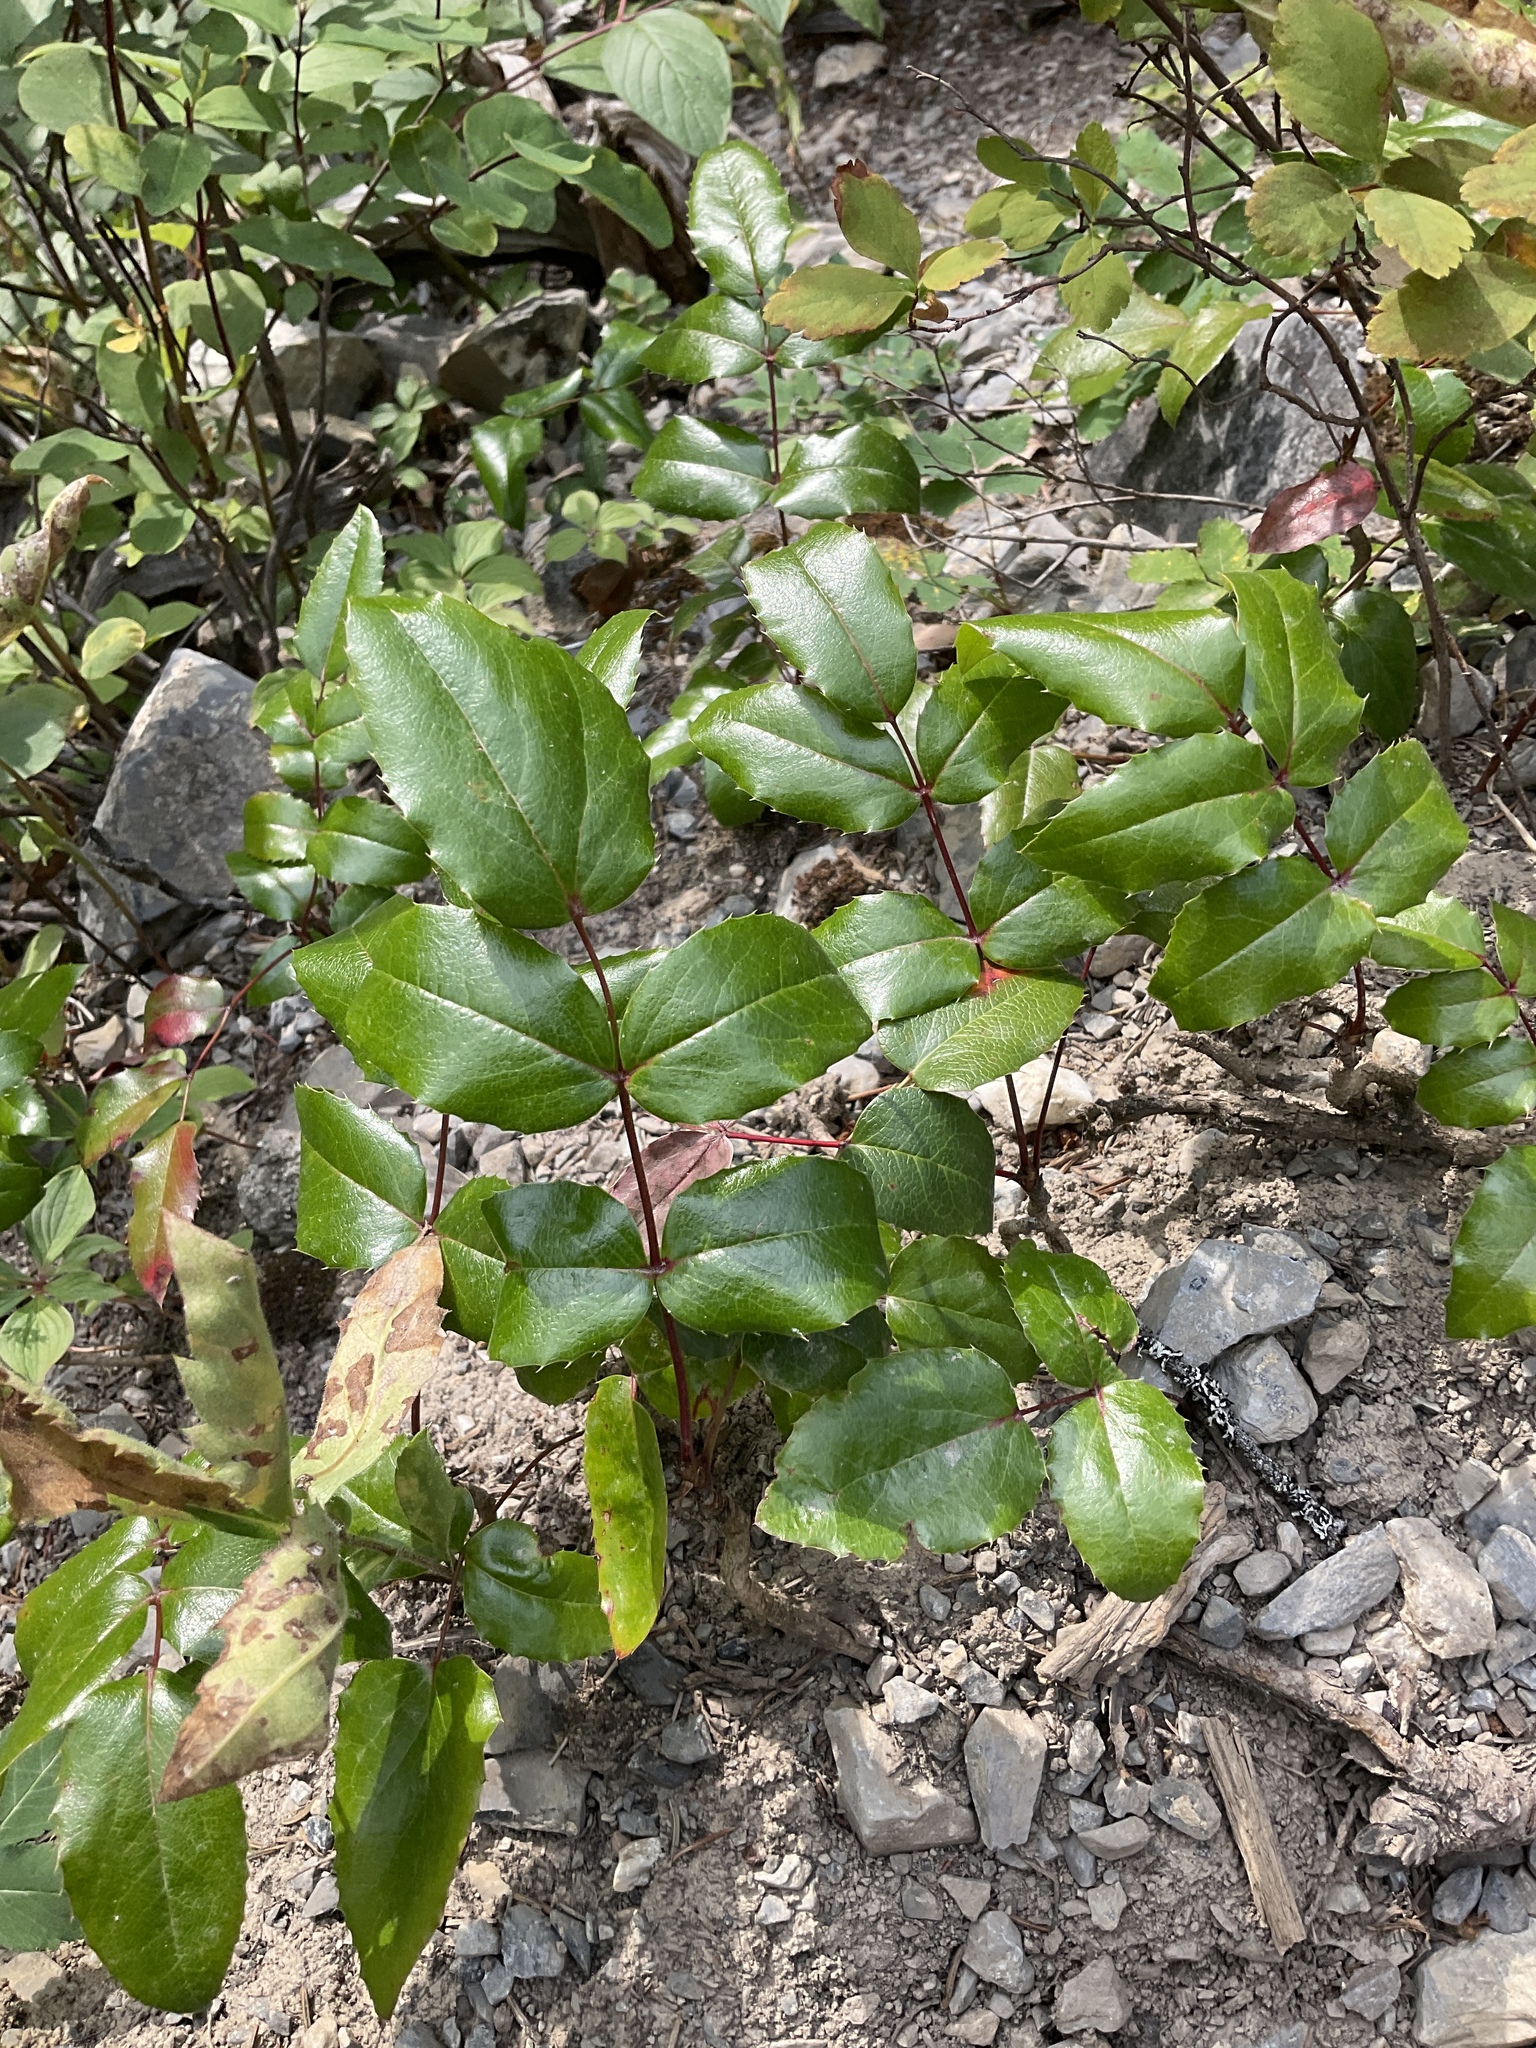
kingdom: Plantae
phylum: Tracheophyta
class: Magnoliopsida
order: Ranunculales
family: Berberidaceae
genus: Mahonia
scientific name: Mahonia aquifolium
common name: Oregon-grape
